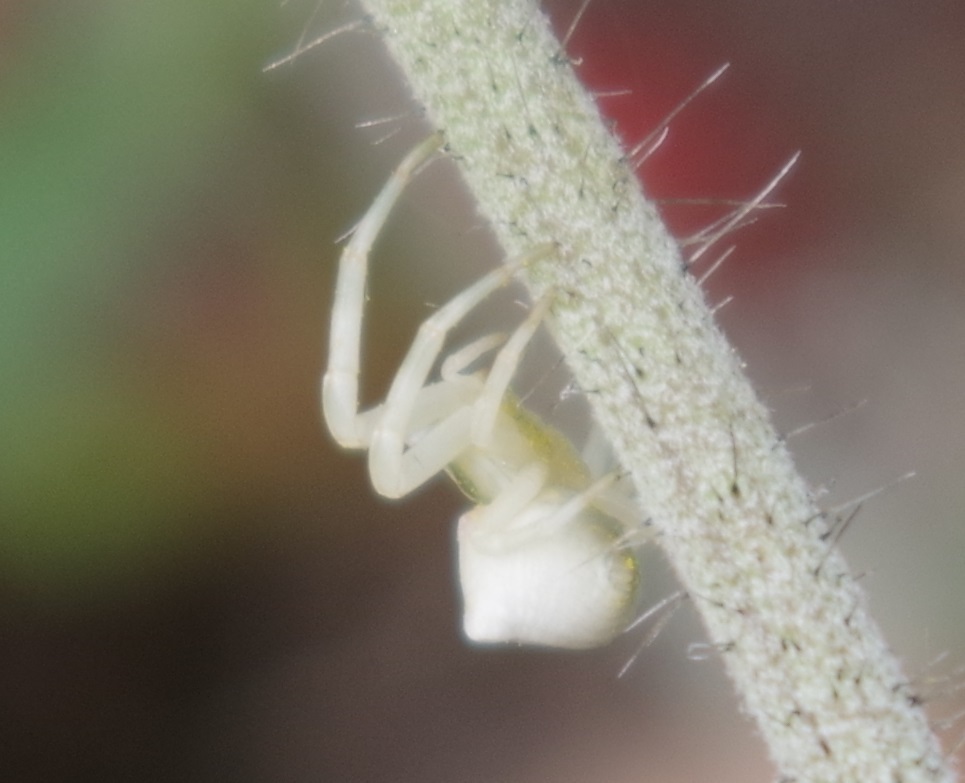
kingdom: Animalia
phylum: Arthropoda
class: Arachnida
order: Araneae
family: Thomisidae
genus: Thomisus
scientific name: Thomisus onustus
